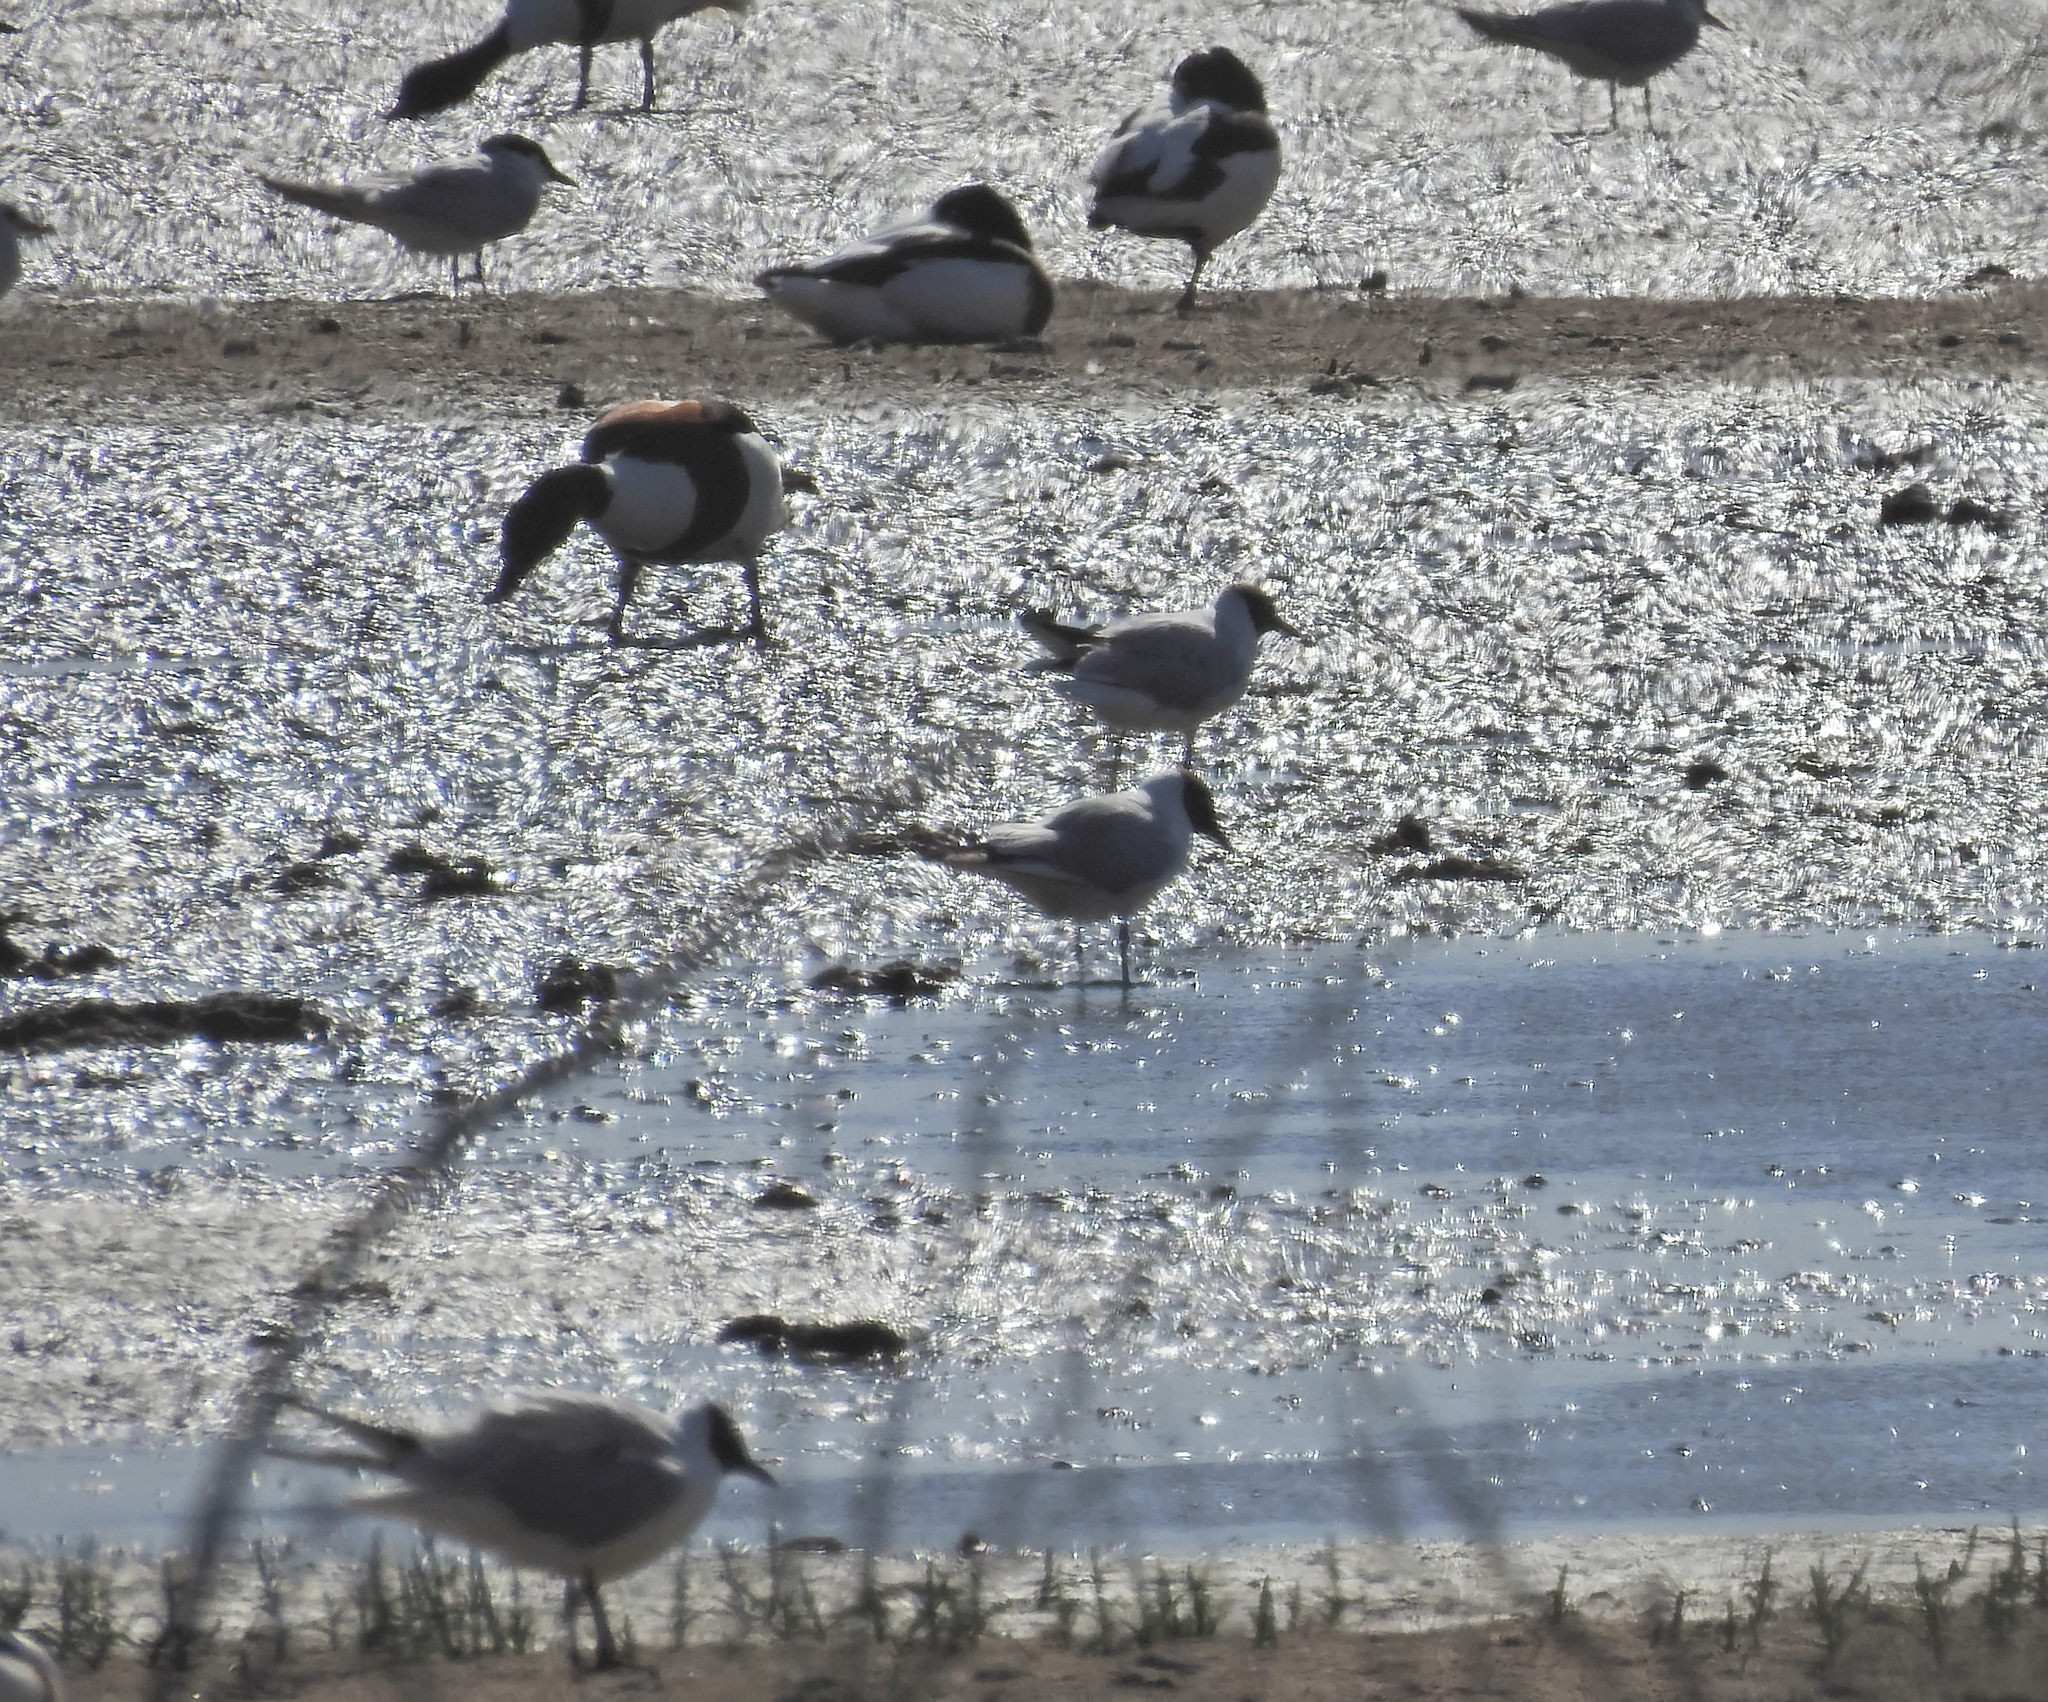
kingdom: Animalia
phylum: Chordata
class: Aves
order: Charadriiformes
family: Laridae
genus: Chroicocephalus
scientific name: Chroicocephalus ridibundus
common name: Black-headed gull
